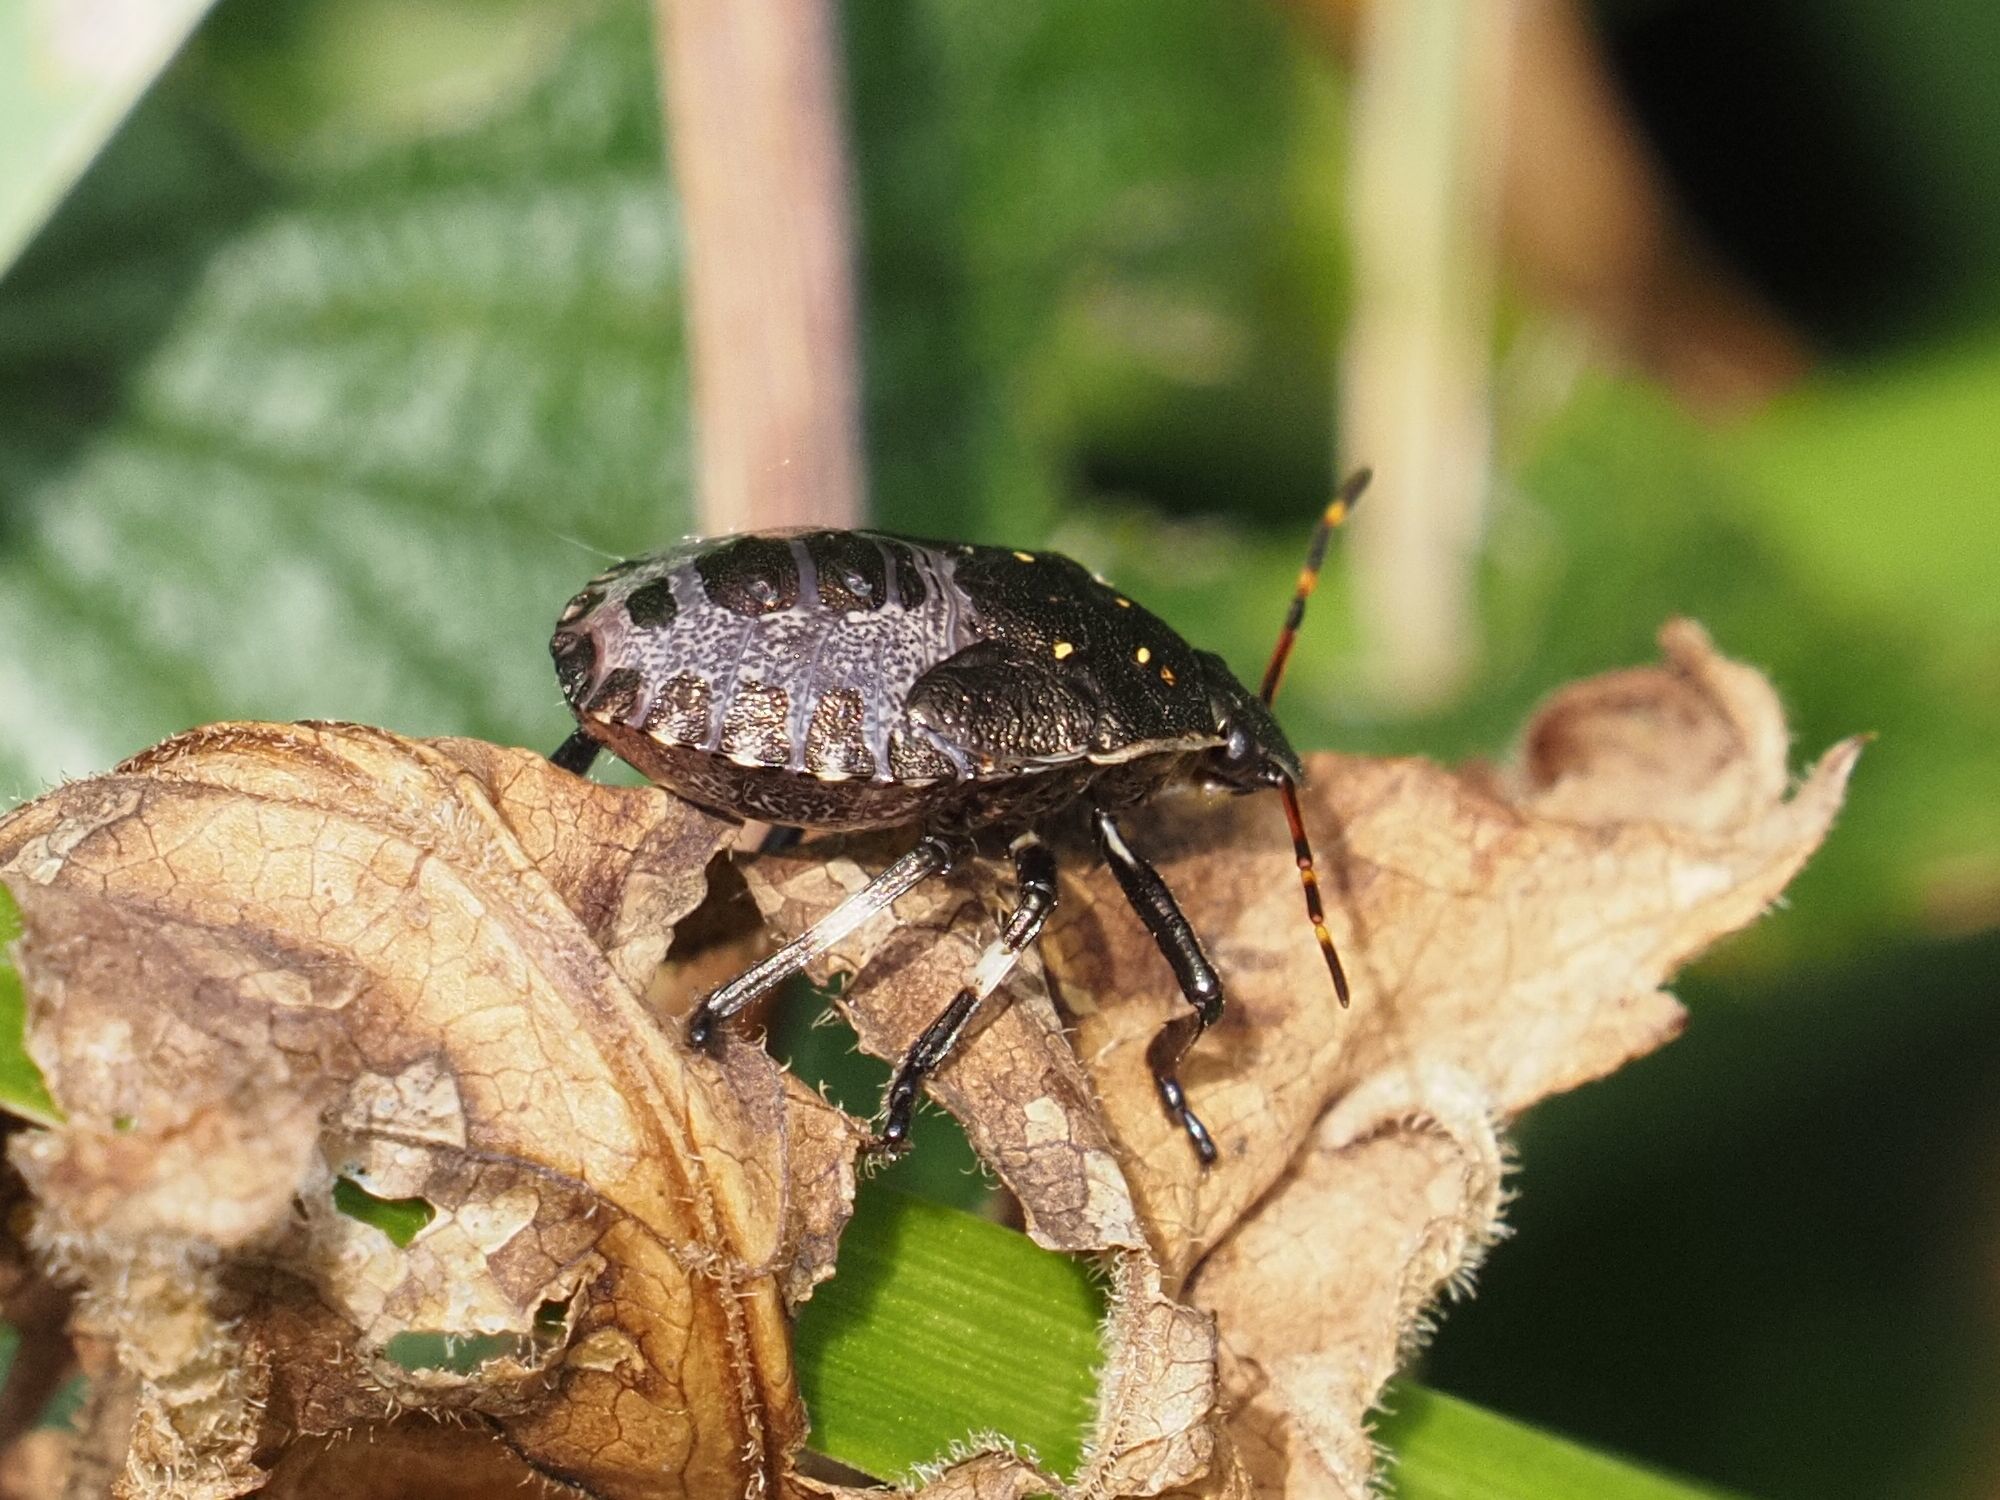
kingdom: Animalia
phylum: Arthropoda
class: Insecta
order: Hemiptera
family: Pentatomidae
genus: Picromerus
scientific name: Picromerus bidens
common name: Spiked shieldbug
